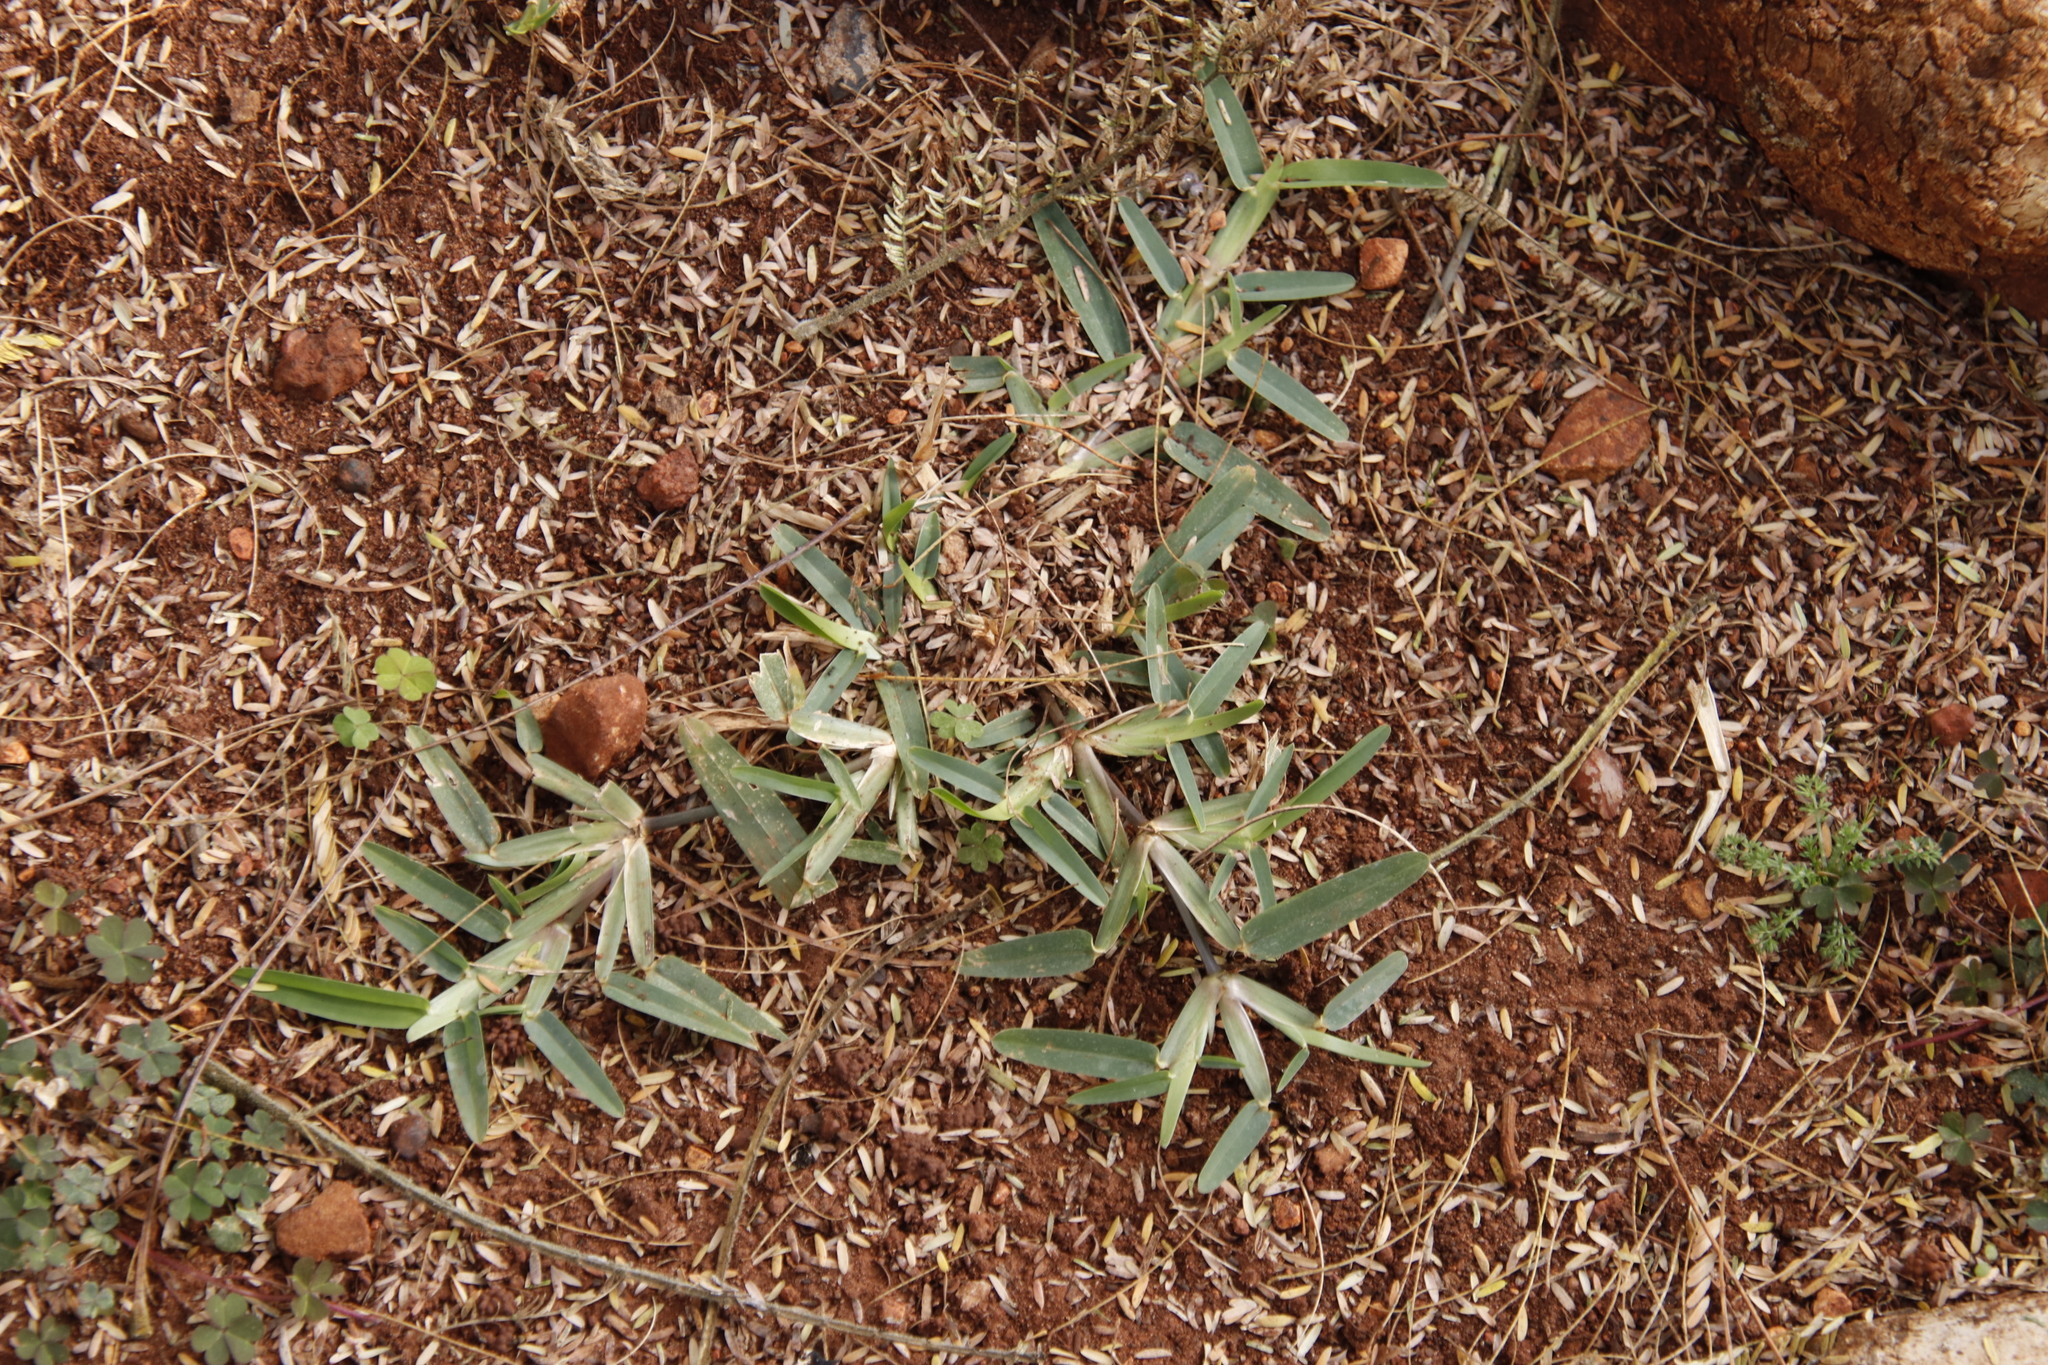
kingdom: Plantae
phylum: Tracheophyta
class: Liliopsida
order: Poales
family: Poaceae
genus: Stenotaphrum
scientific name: Stenotaphrum secundatum
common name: St. augustine grass
